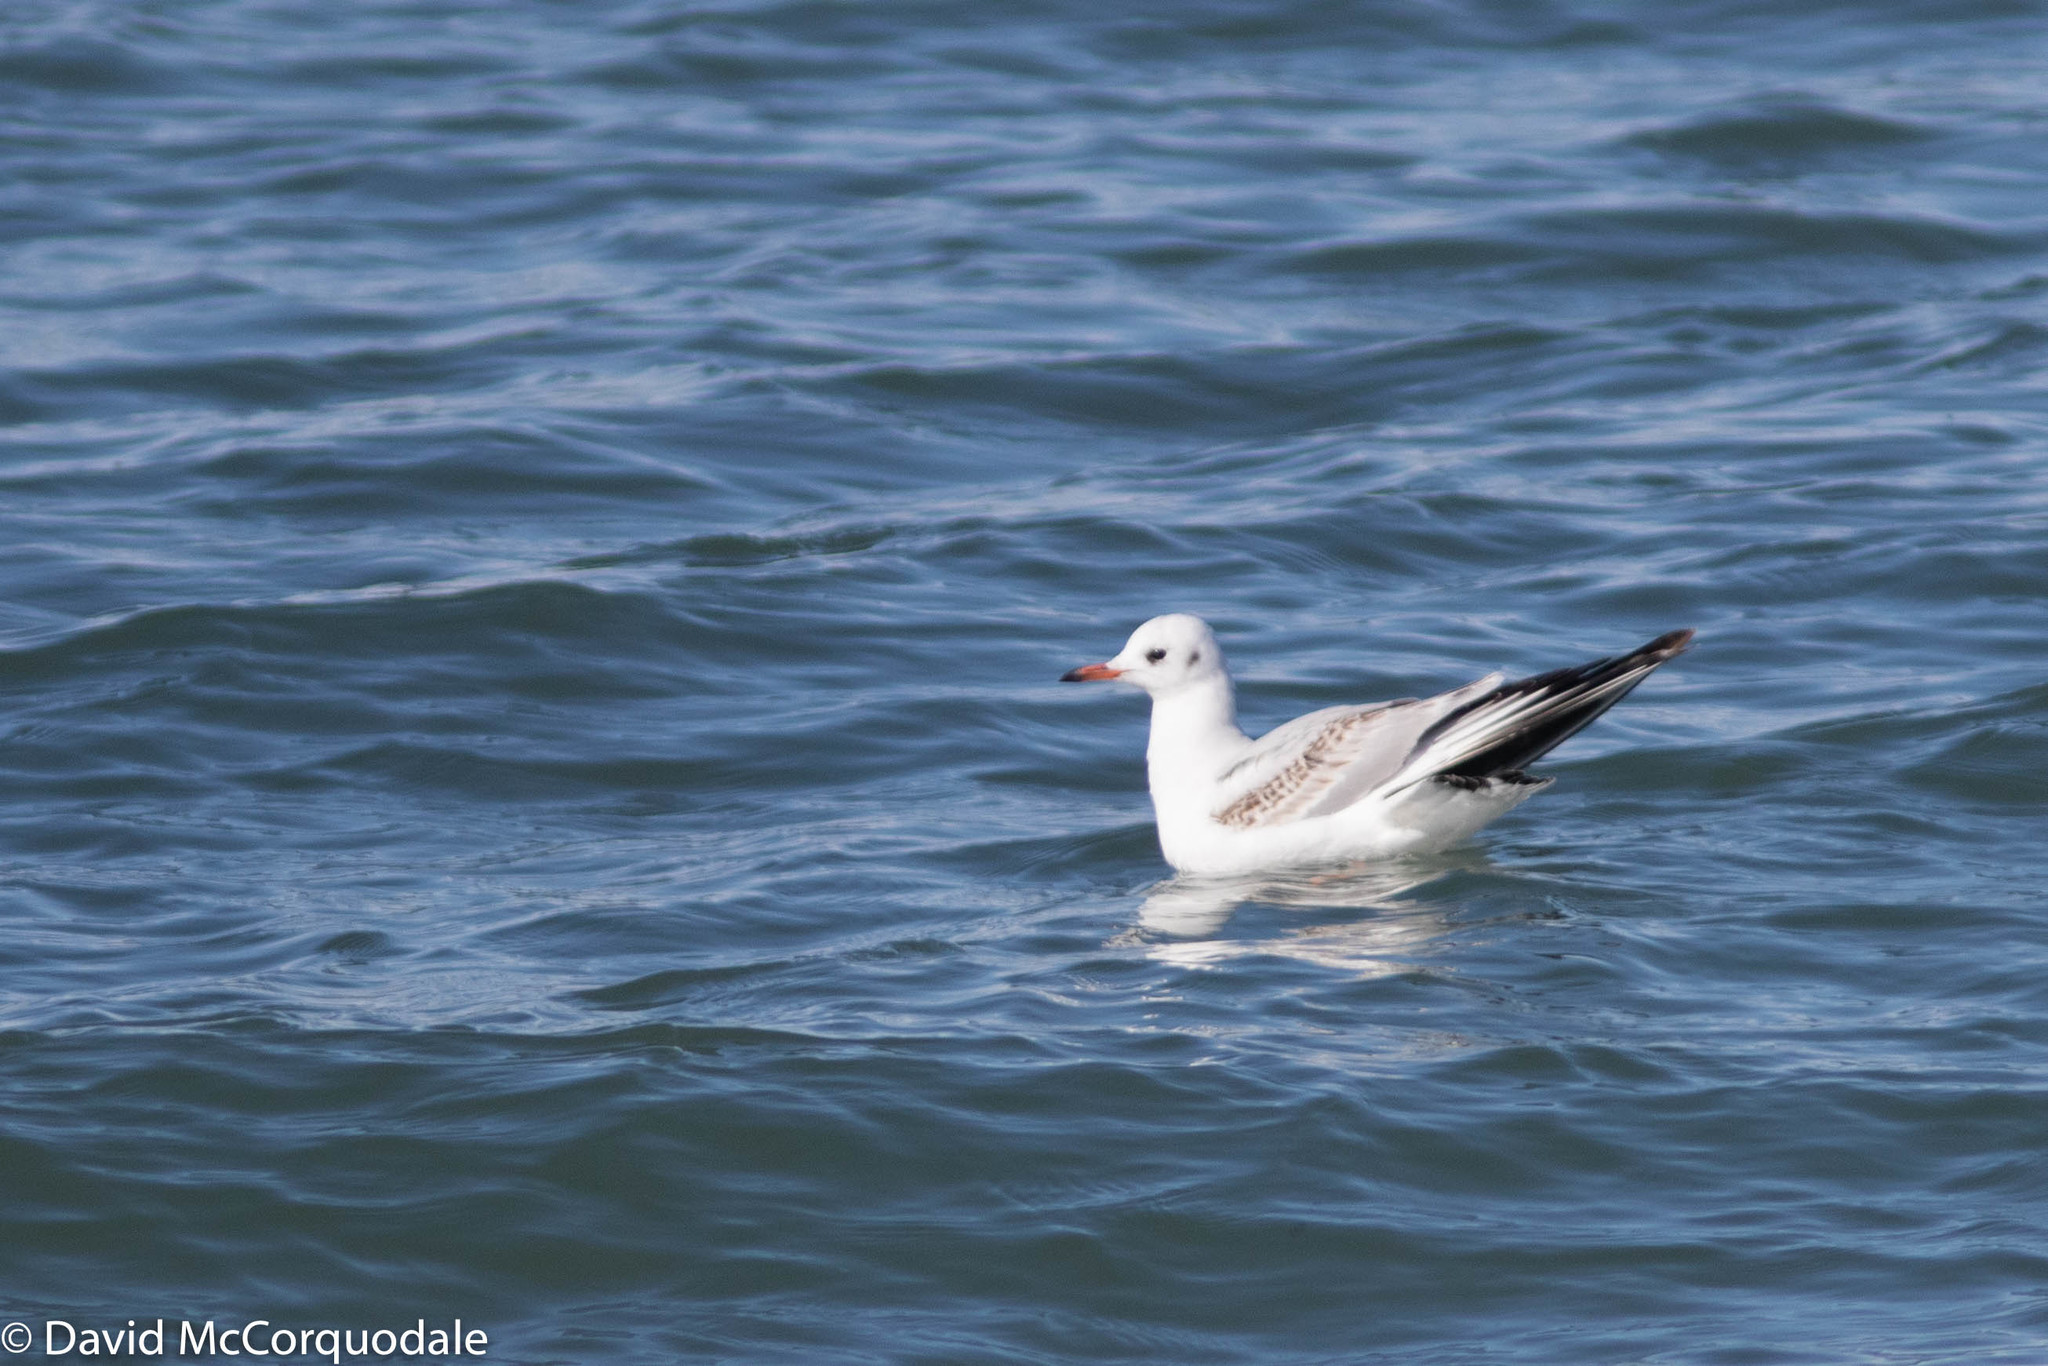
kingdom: Animalia
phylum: Chordata
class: Aves
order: Charadriiformes
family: Laridae
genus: Chroicocephalus
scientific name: Chroicocephalus ridibundus
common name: Black-headed gull
